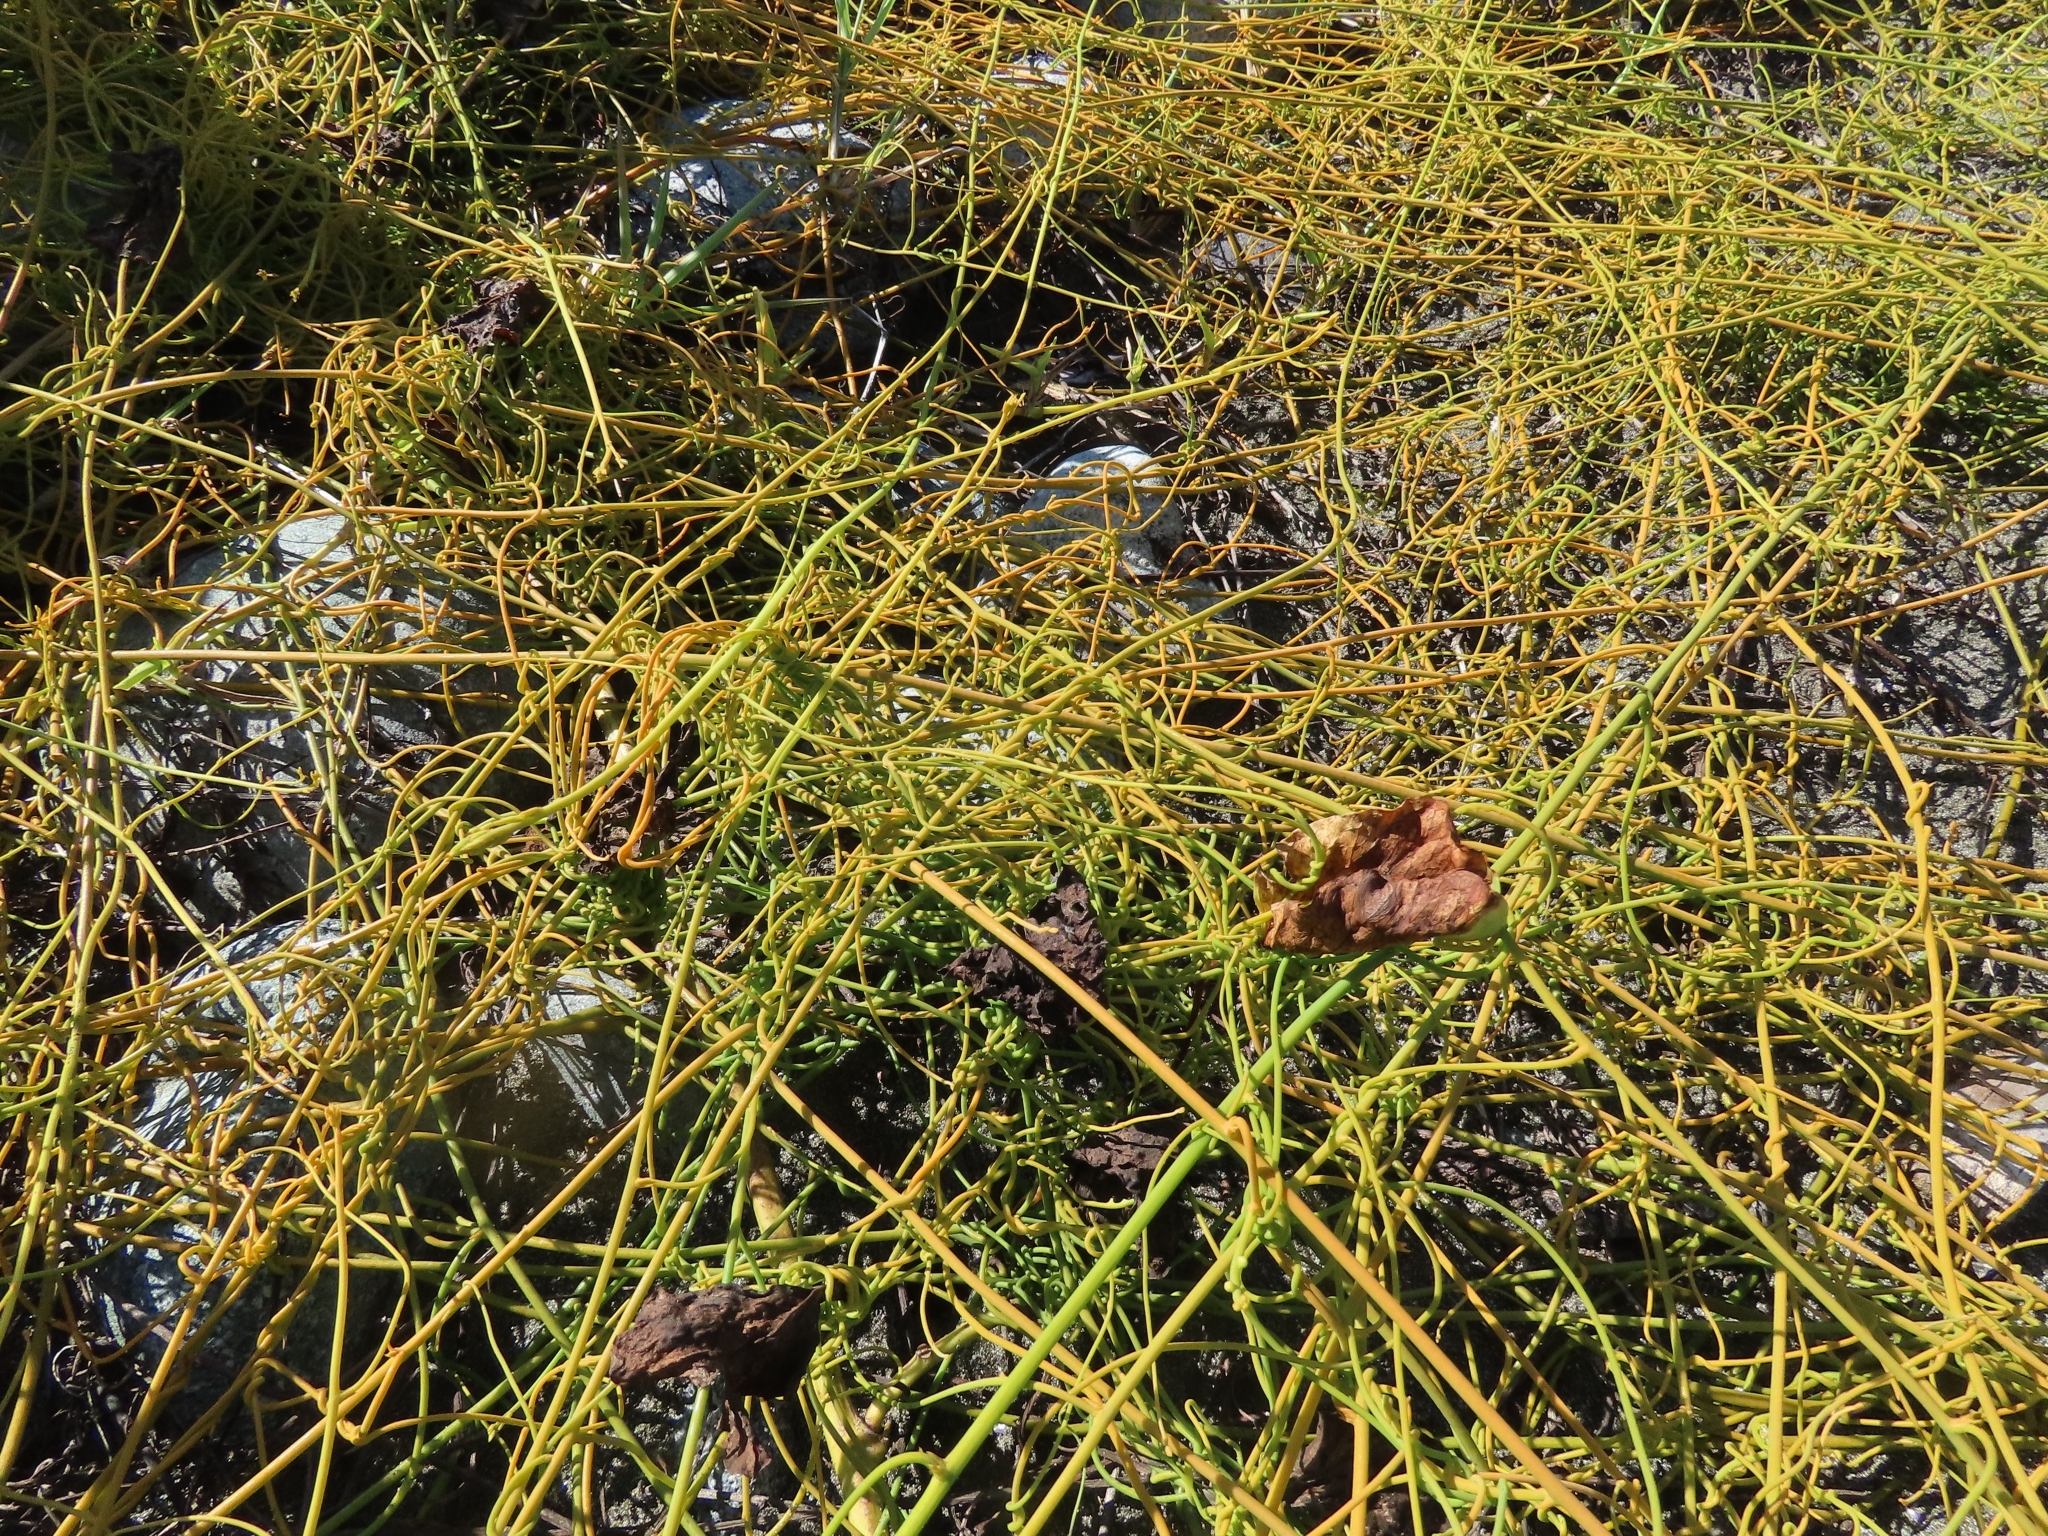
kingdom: Plantae
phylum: Tracheophyta
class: Magnoliopsida
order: Laurales
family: Lauraceae
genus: Cassytha
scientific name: Cassytha filiformis
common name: Dodder-laurel
